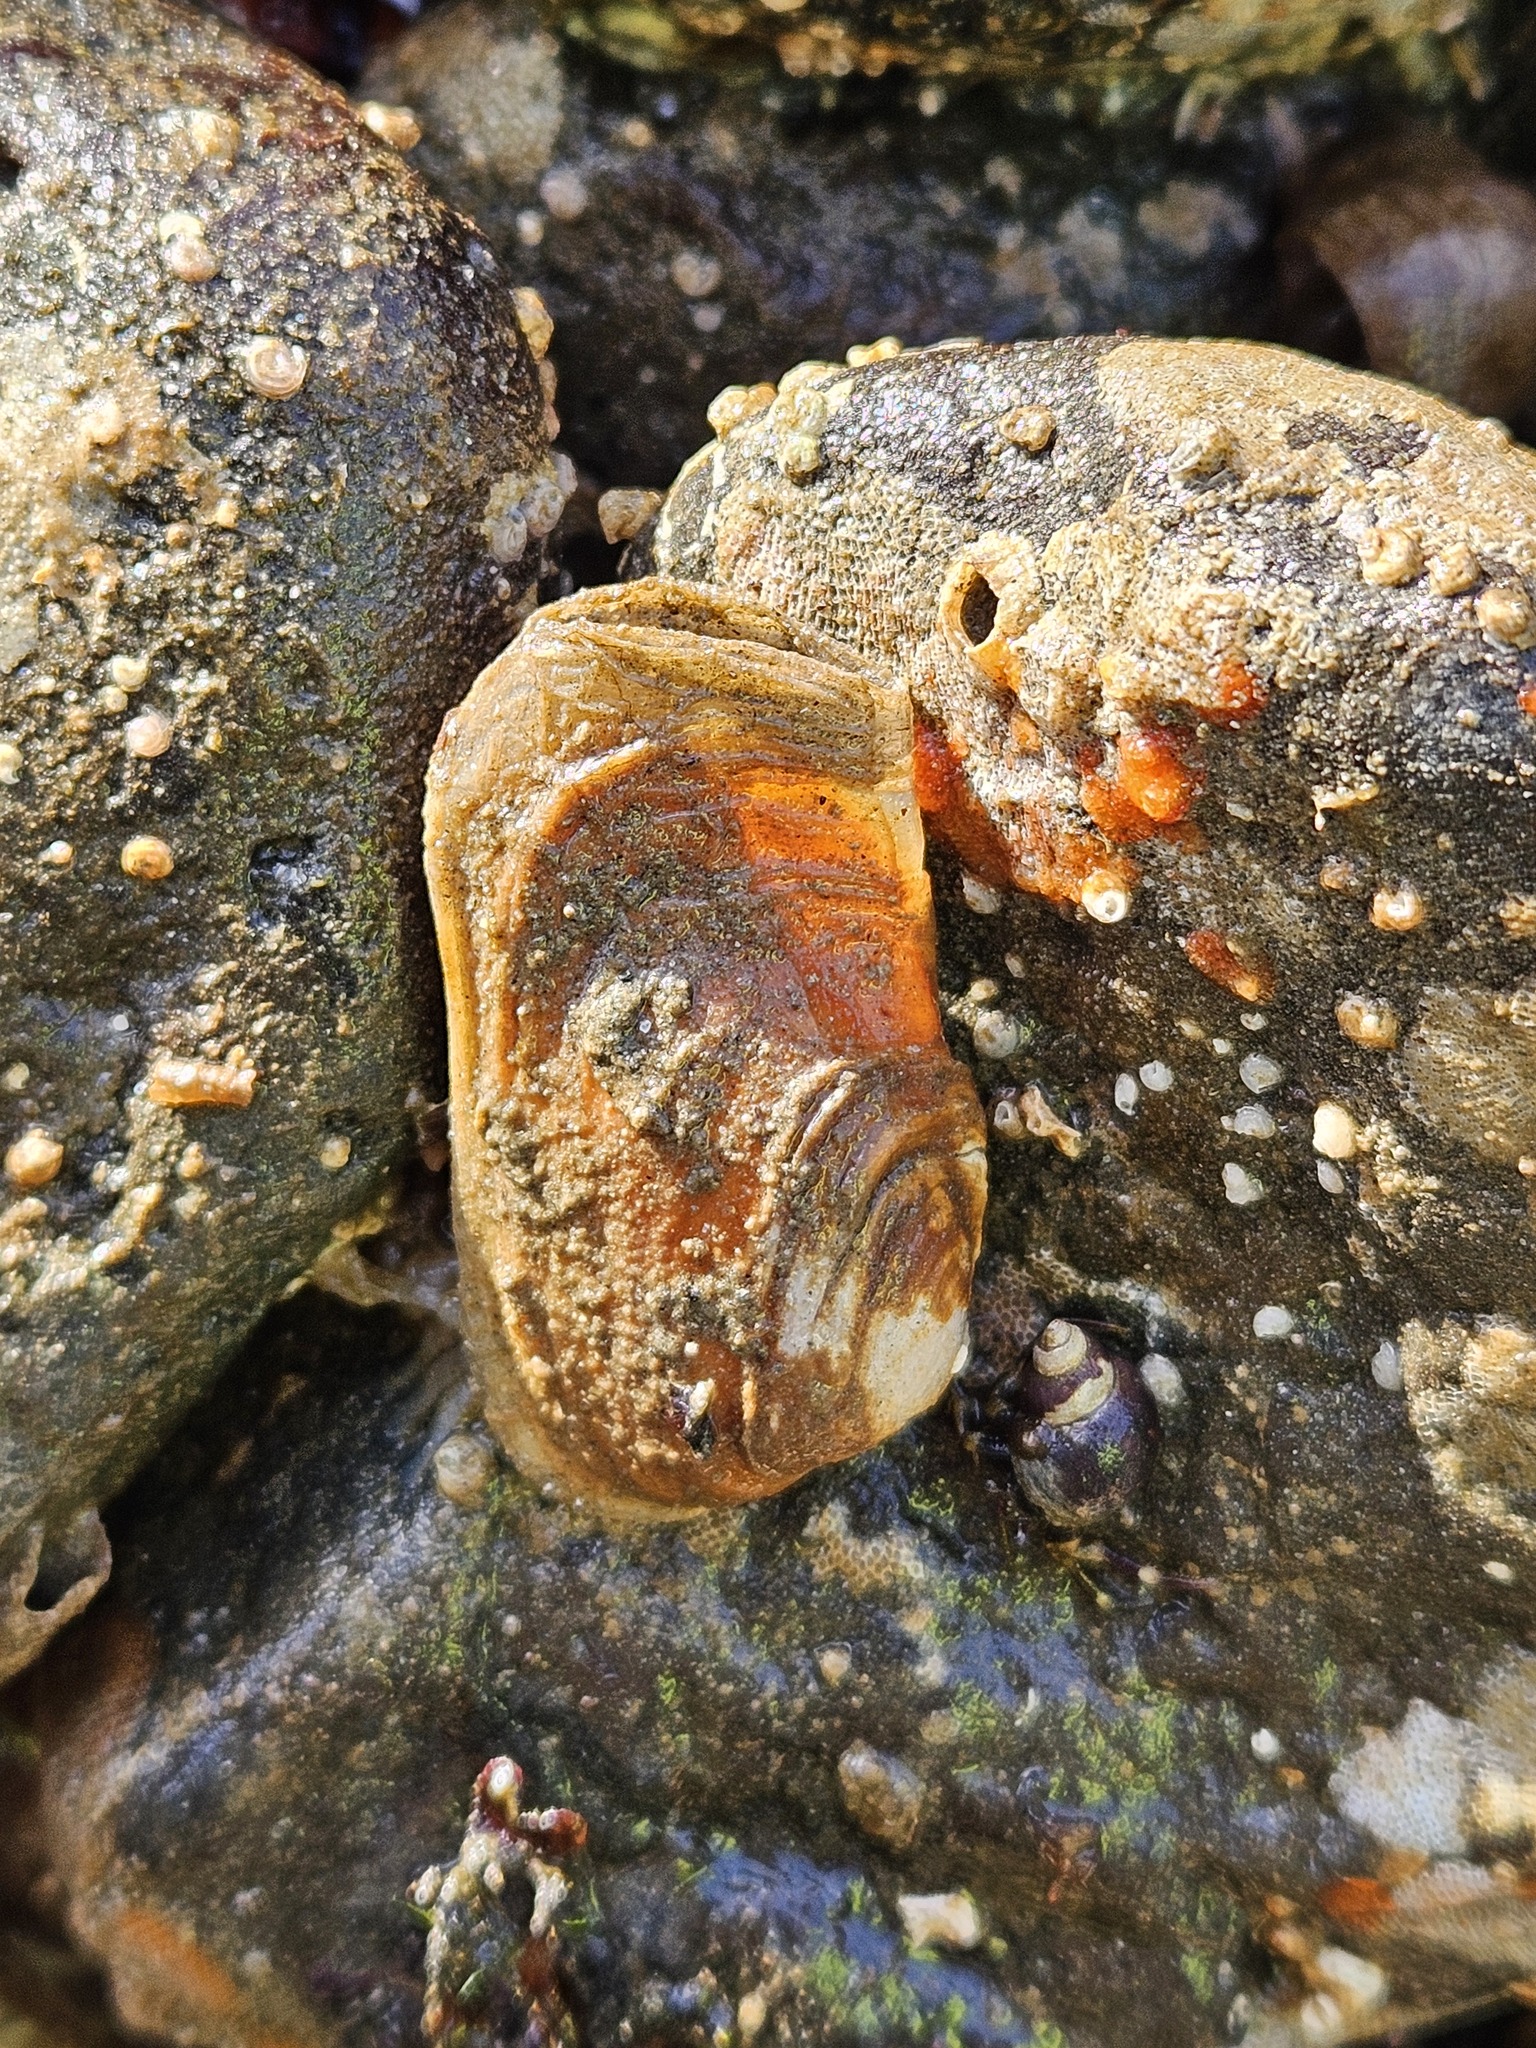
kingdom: Animalia
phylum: Mollusca
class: Bivalvia
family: Lyonsiidae
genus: Entodesma
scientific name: Entodesma navicula
